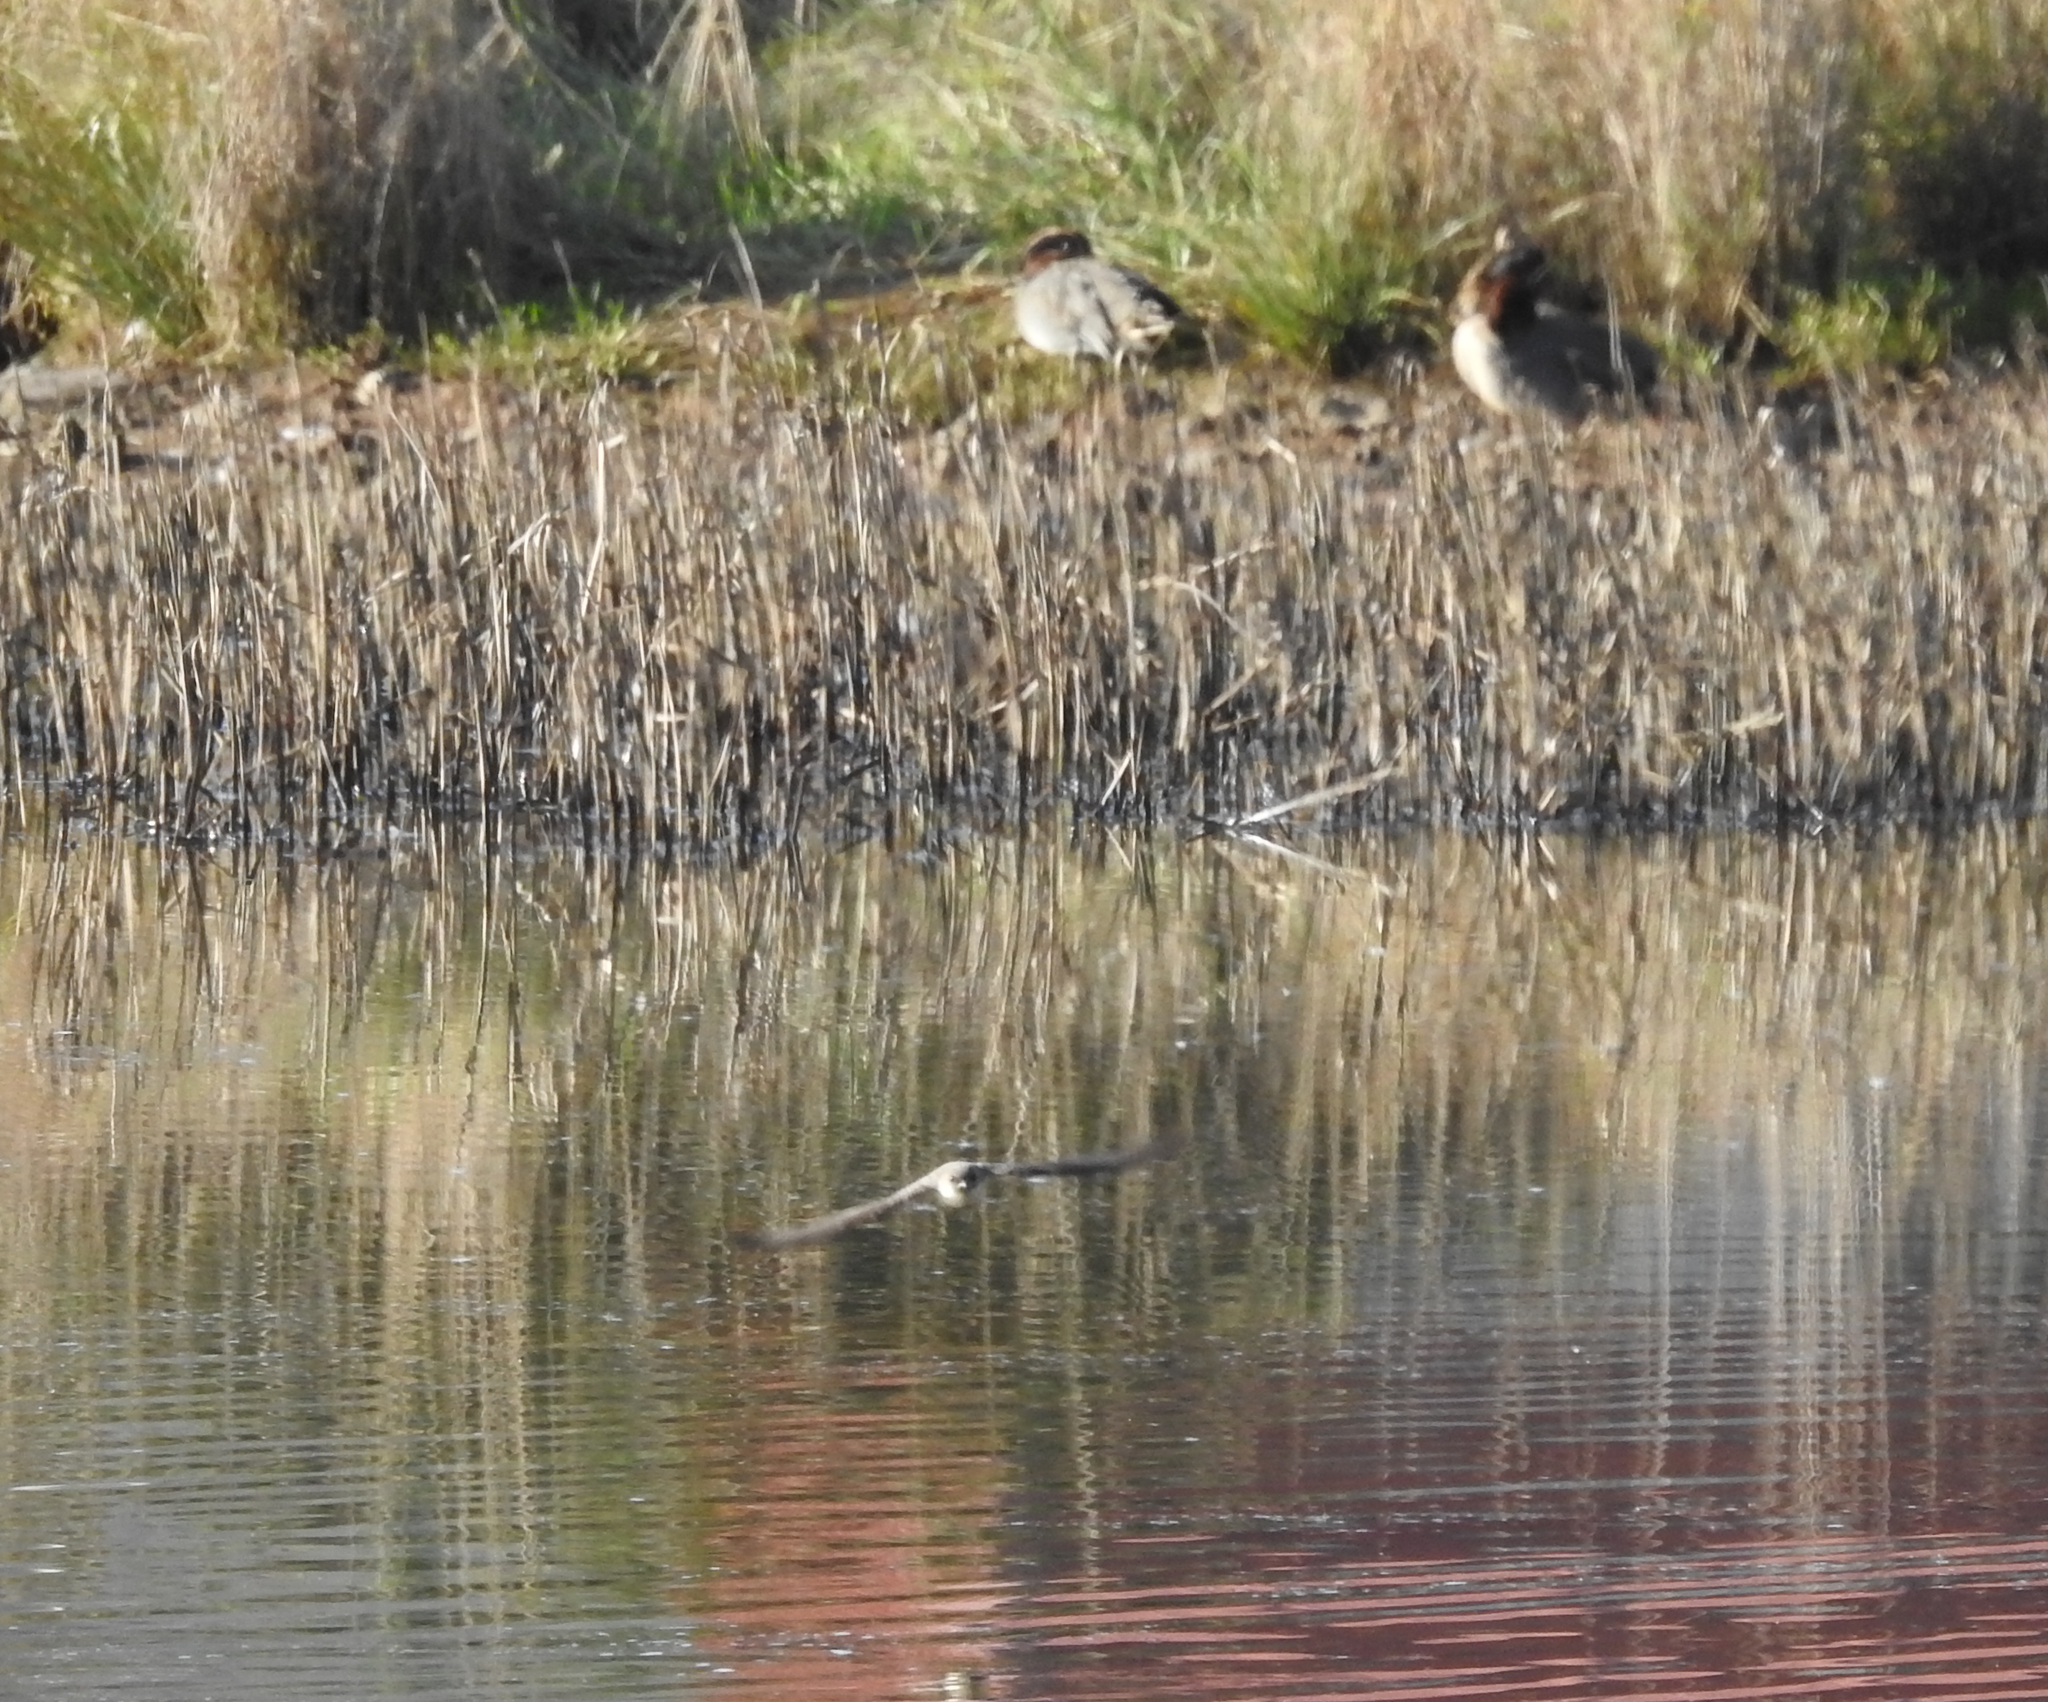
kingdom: Animalia
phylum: Chordata
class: Aves
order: Passeriformes
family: Hirundinidae
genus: Ptyonoprogne
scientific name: Ptyonoprogne rupestris
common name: Eurasian crag martin
